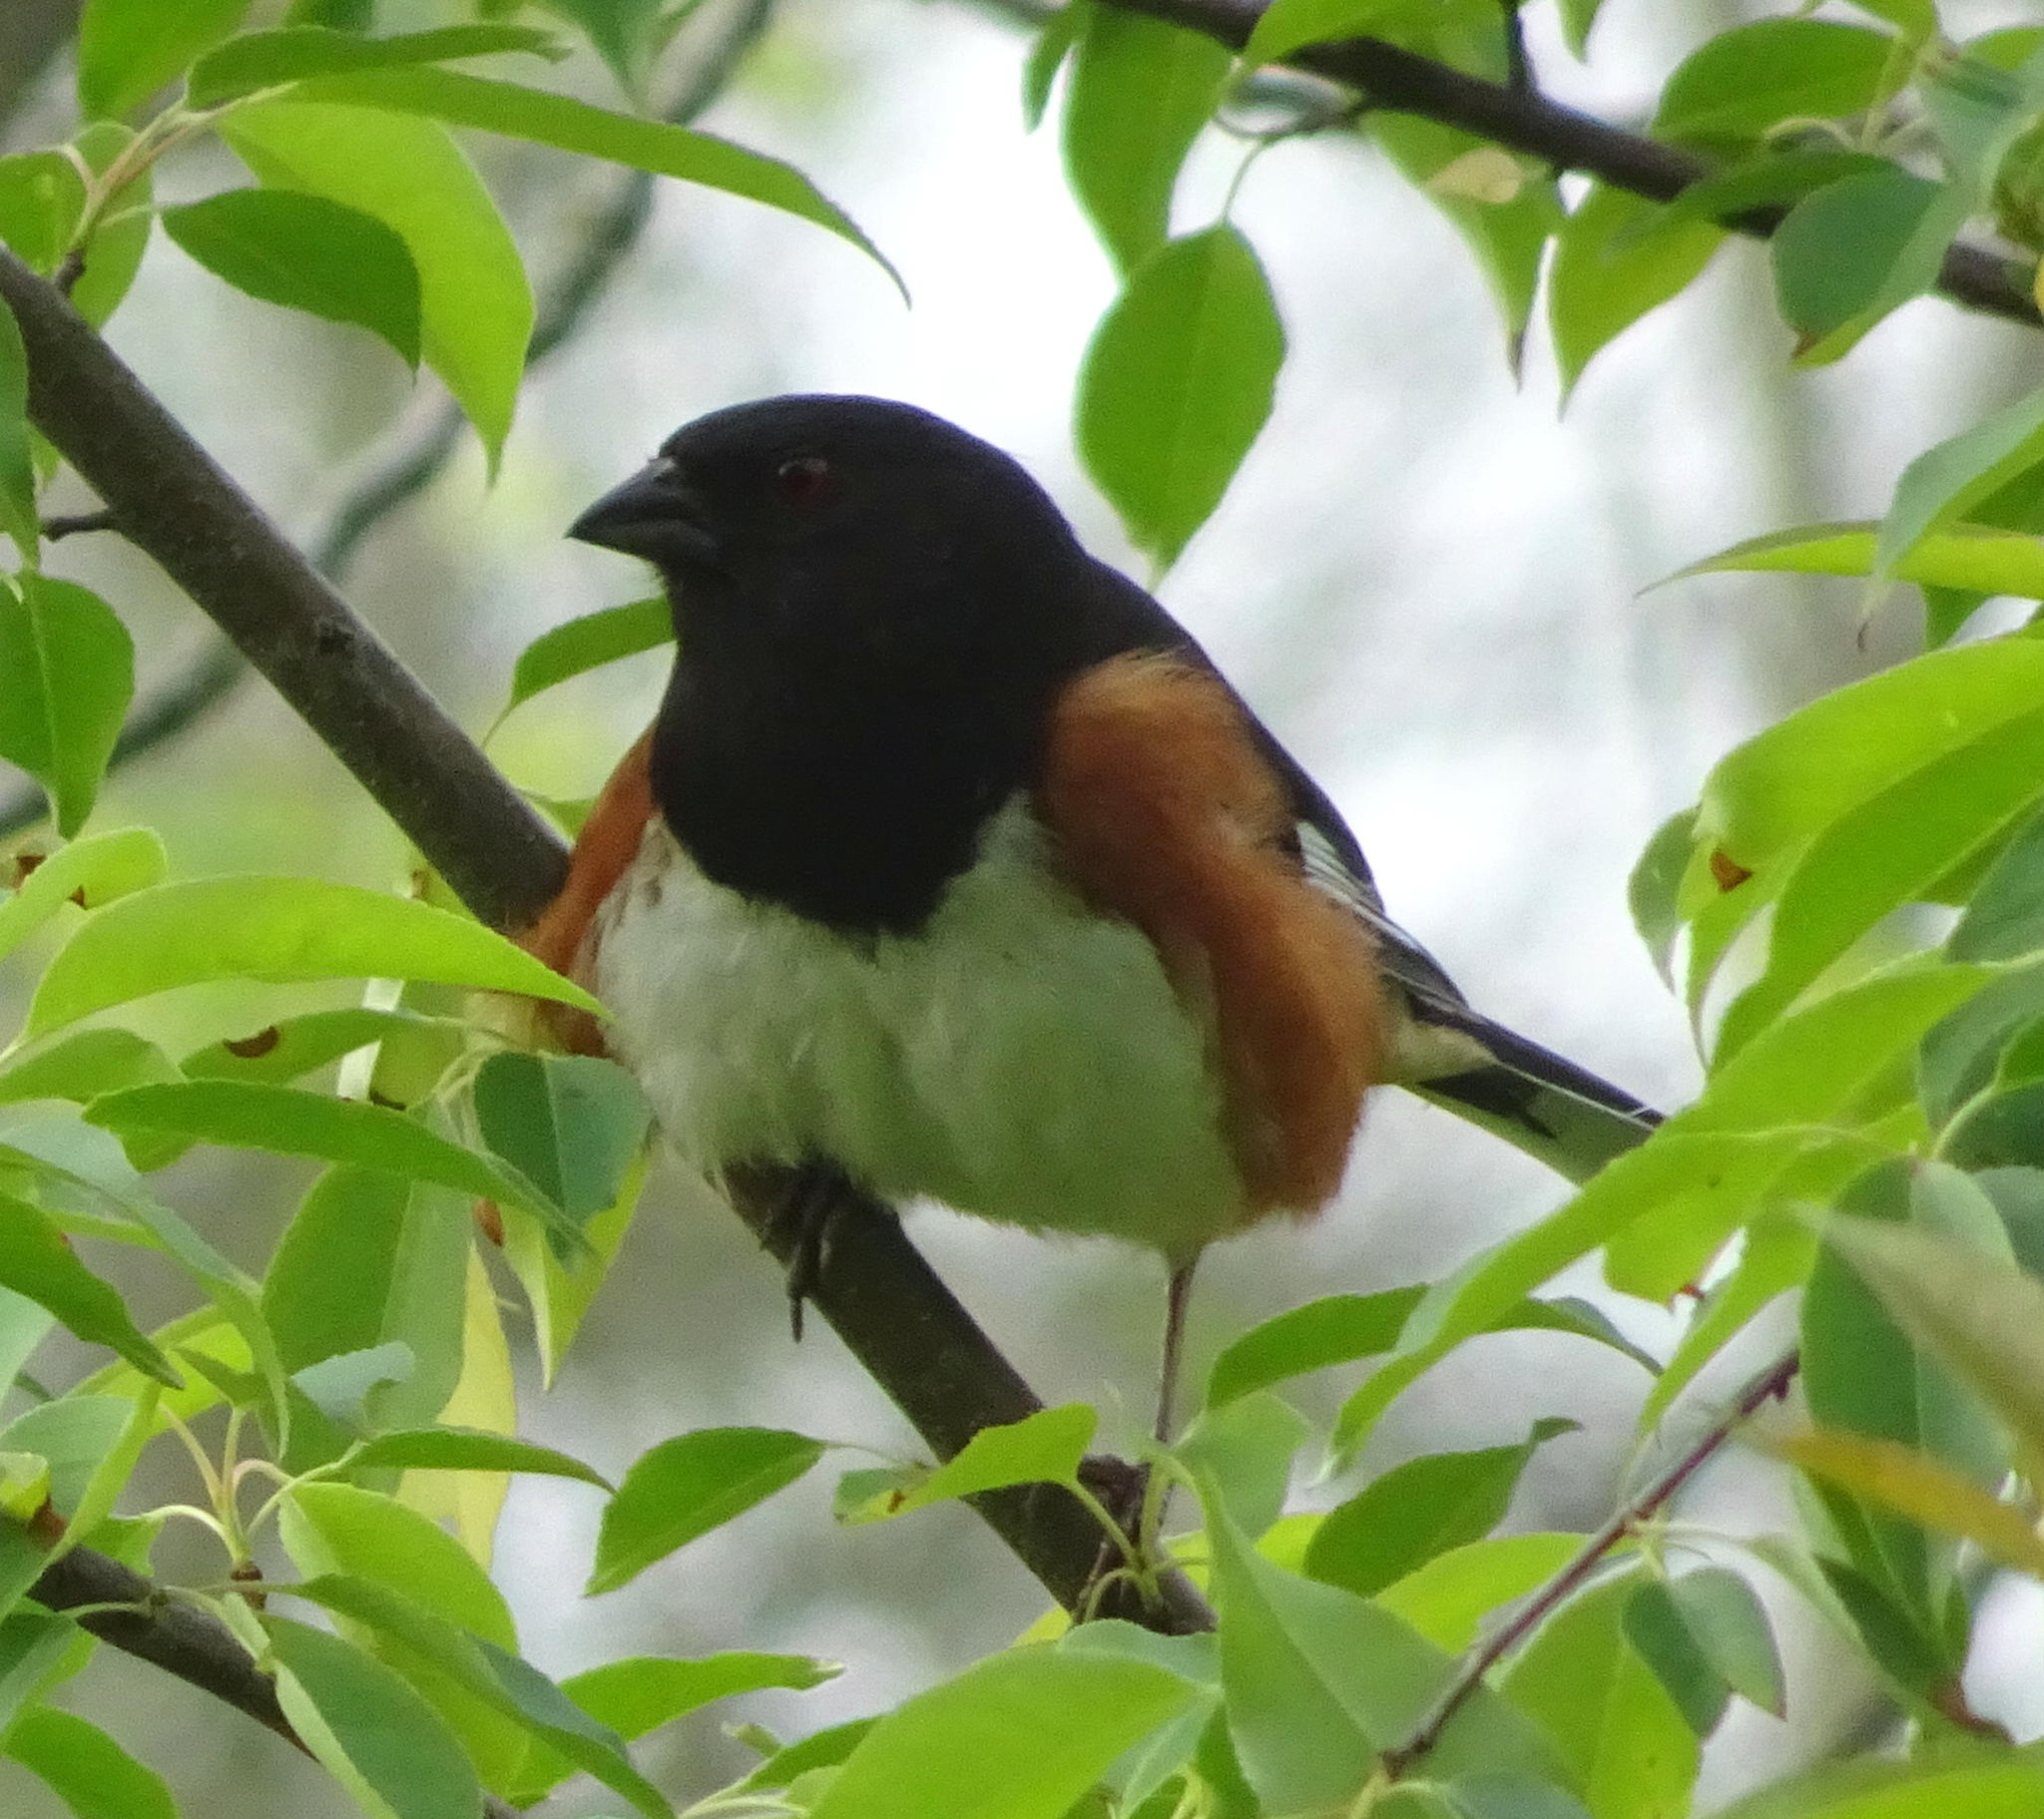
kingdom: Animalia
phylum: Chordata
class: Aves
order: Passeriformes
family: Passerellidae
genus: Pipilo
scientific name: Pipilo erythrophthalmus
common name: Eastern towhee
